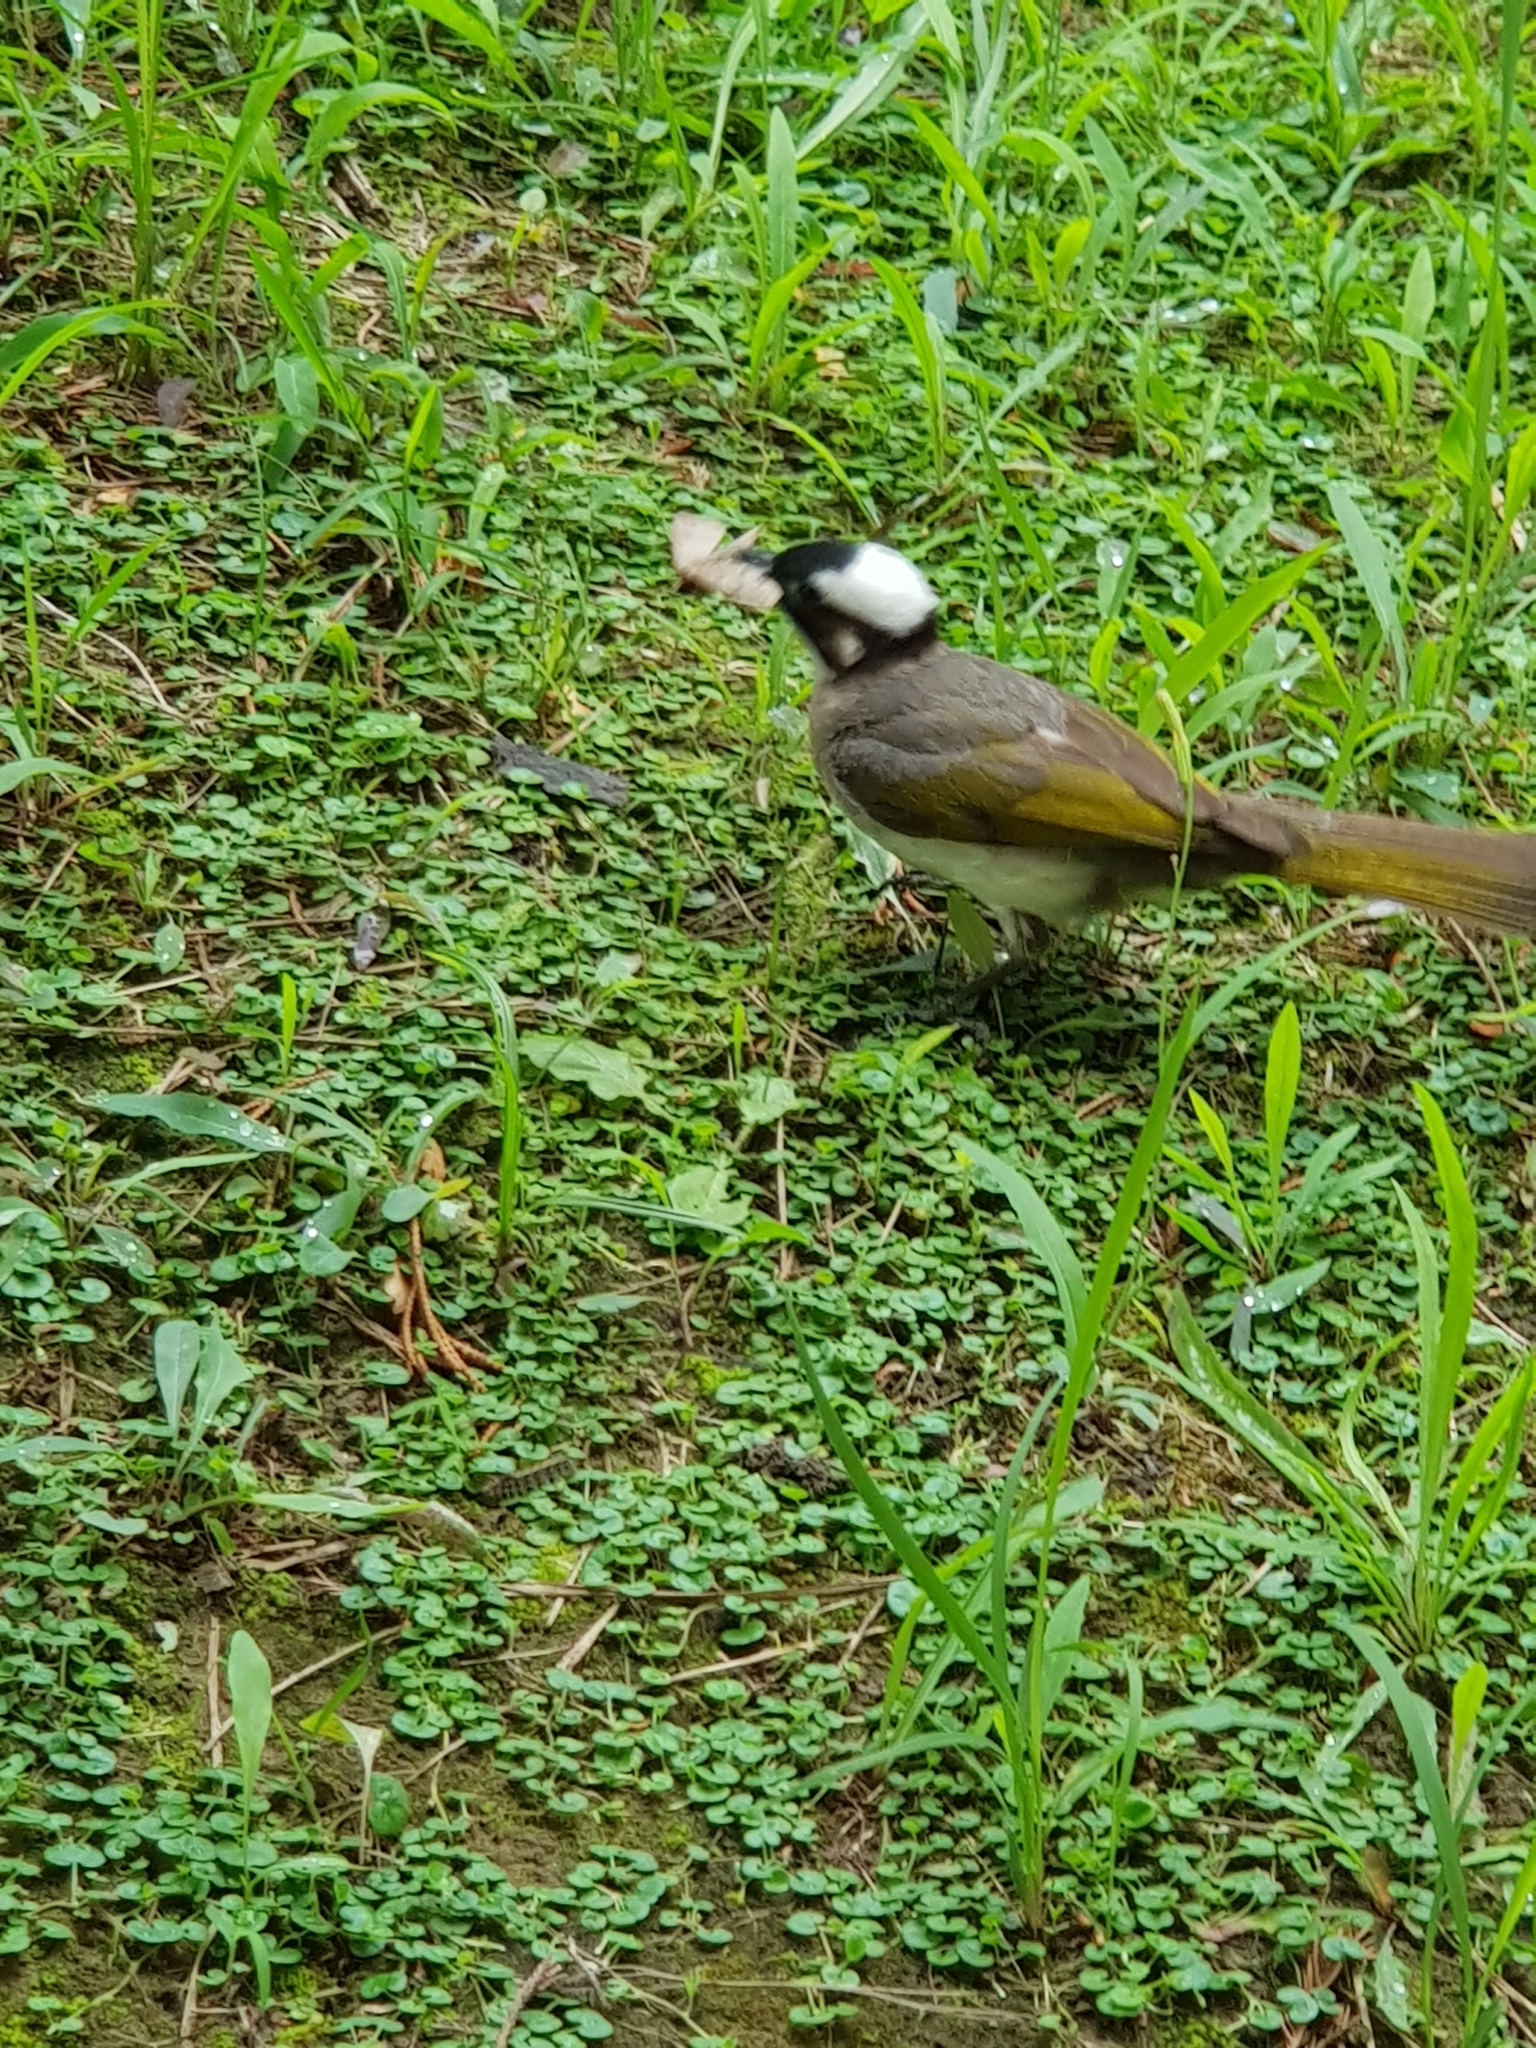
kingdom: Animalia
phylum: Chordata
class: Aves
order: Passeriformes
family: Pycnonotidae
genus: Pycnonotus
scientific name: Pycnonotus sinensis
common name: Light-vented bulbul
